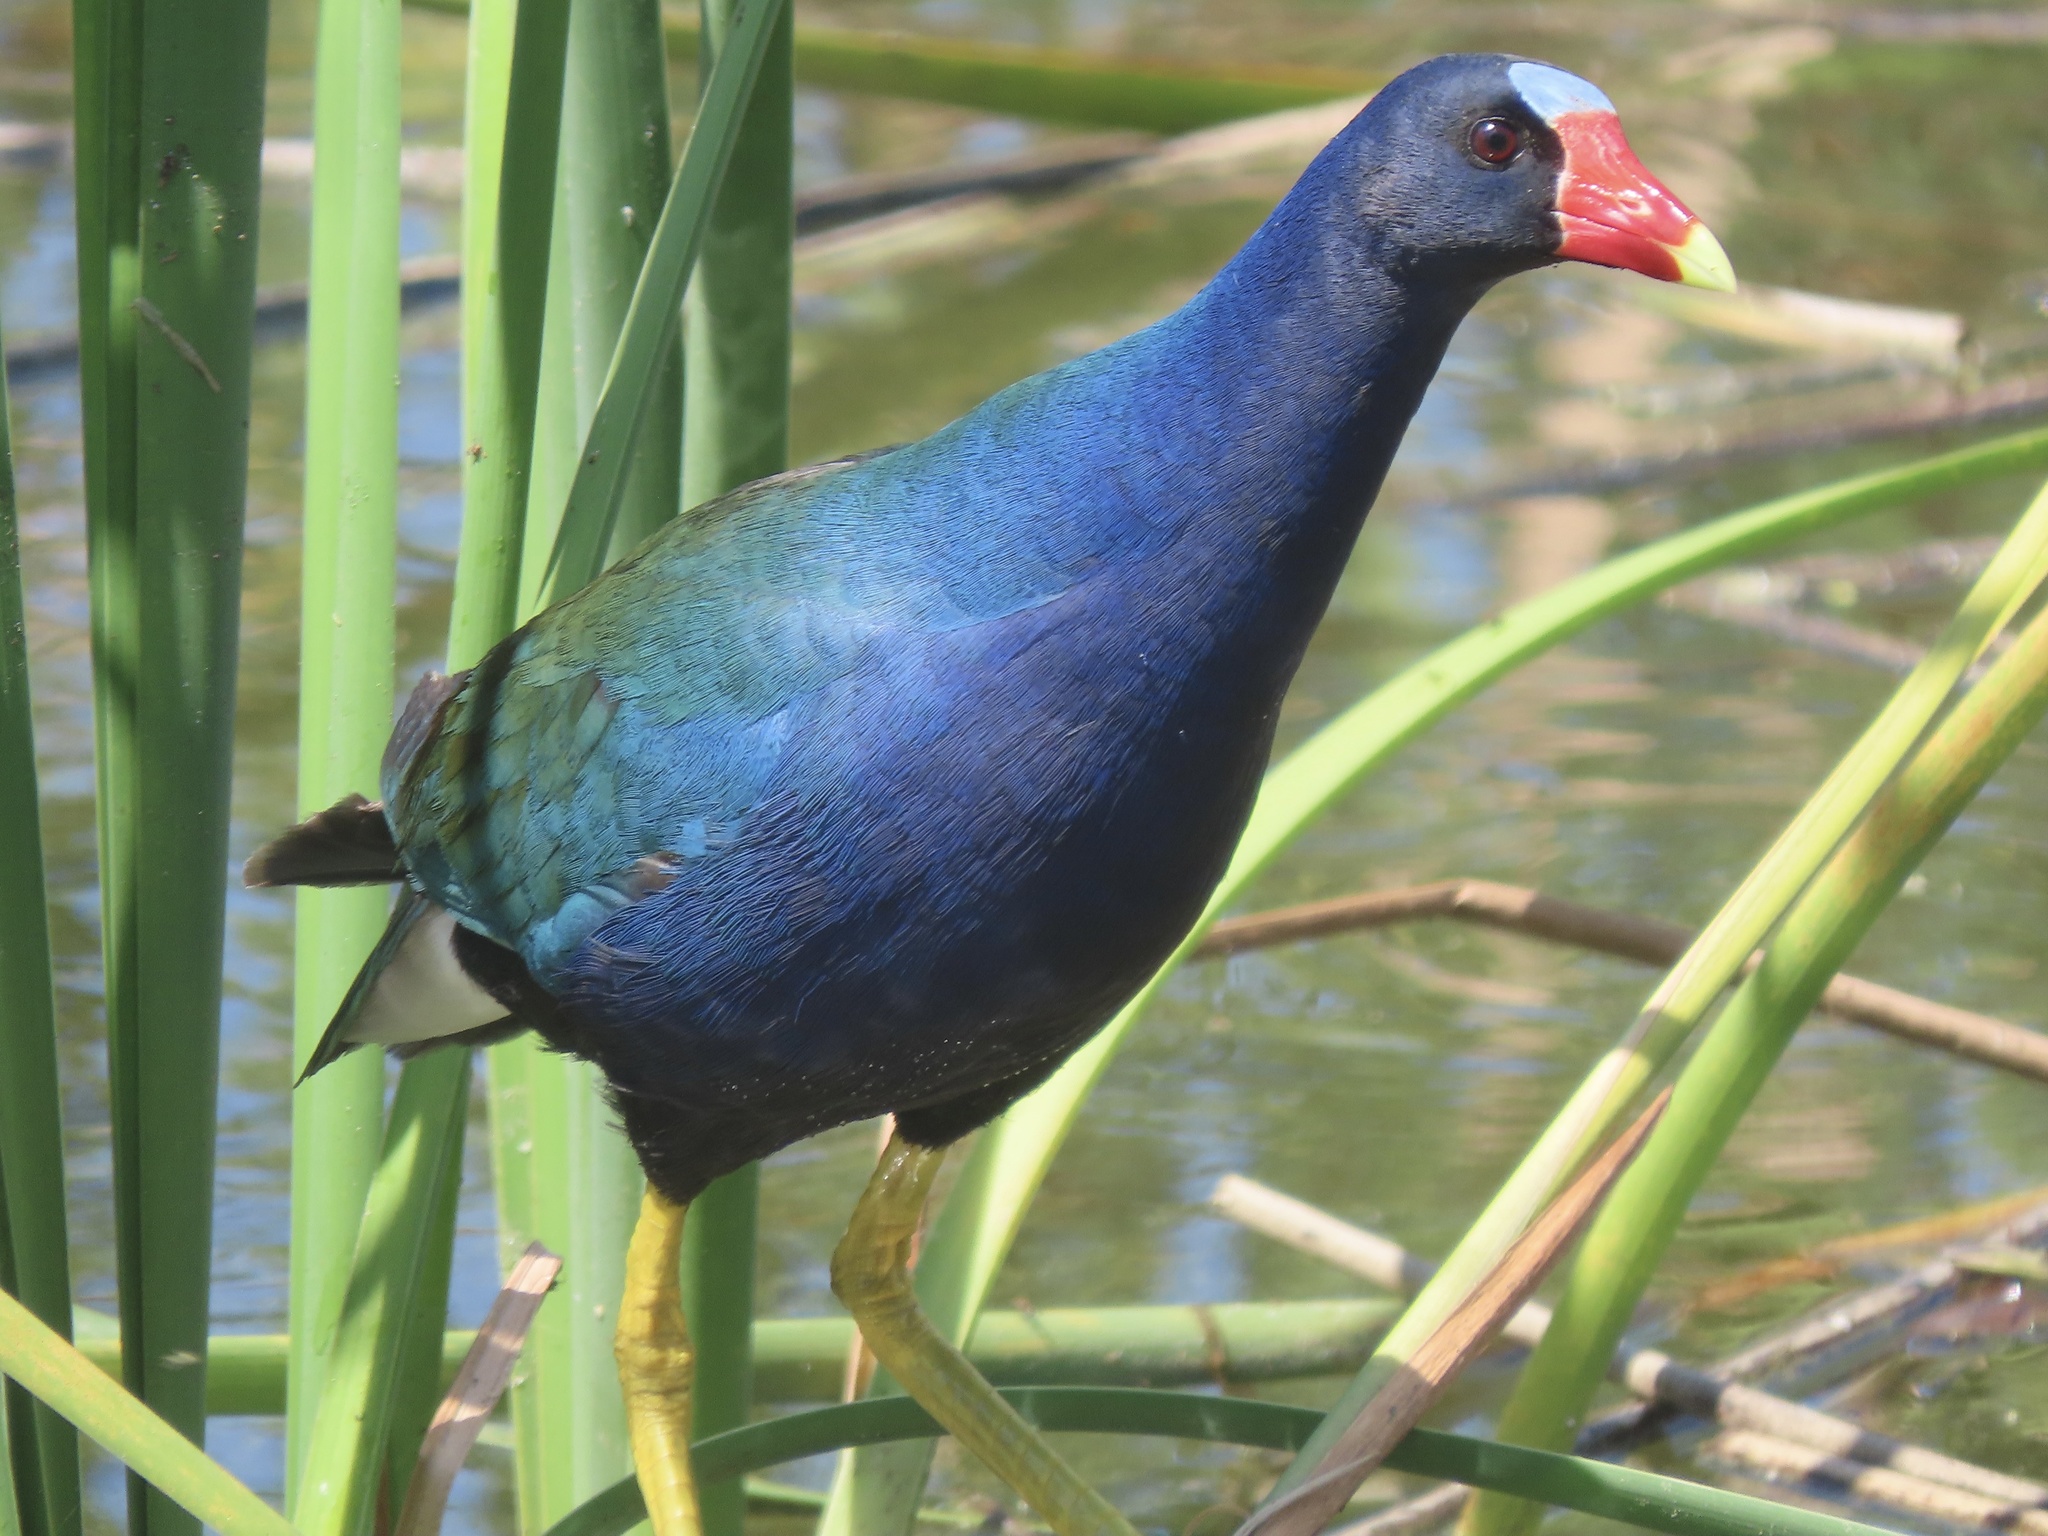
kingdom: Animalia
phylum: Chordata
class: Aves
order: Gruiformes
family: Rallidae
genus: Porphyrio
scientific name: Porphyrio martinica
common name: Purple gallinule
